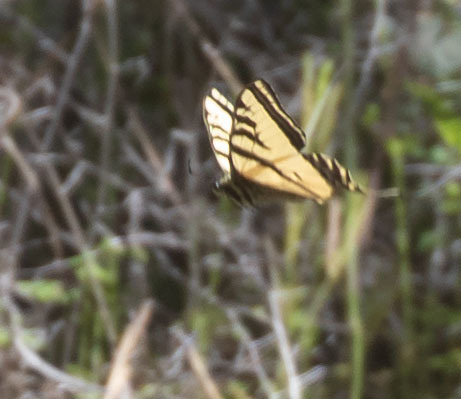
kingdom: Animalia
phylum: Arthropoda
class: Insecta
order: Lepidoptera
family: Papilionidae
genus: Papilio
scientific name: Papilio rutulus
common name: Western tiger swallowtail
